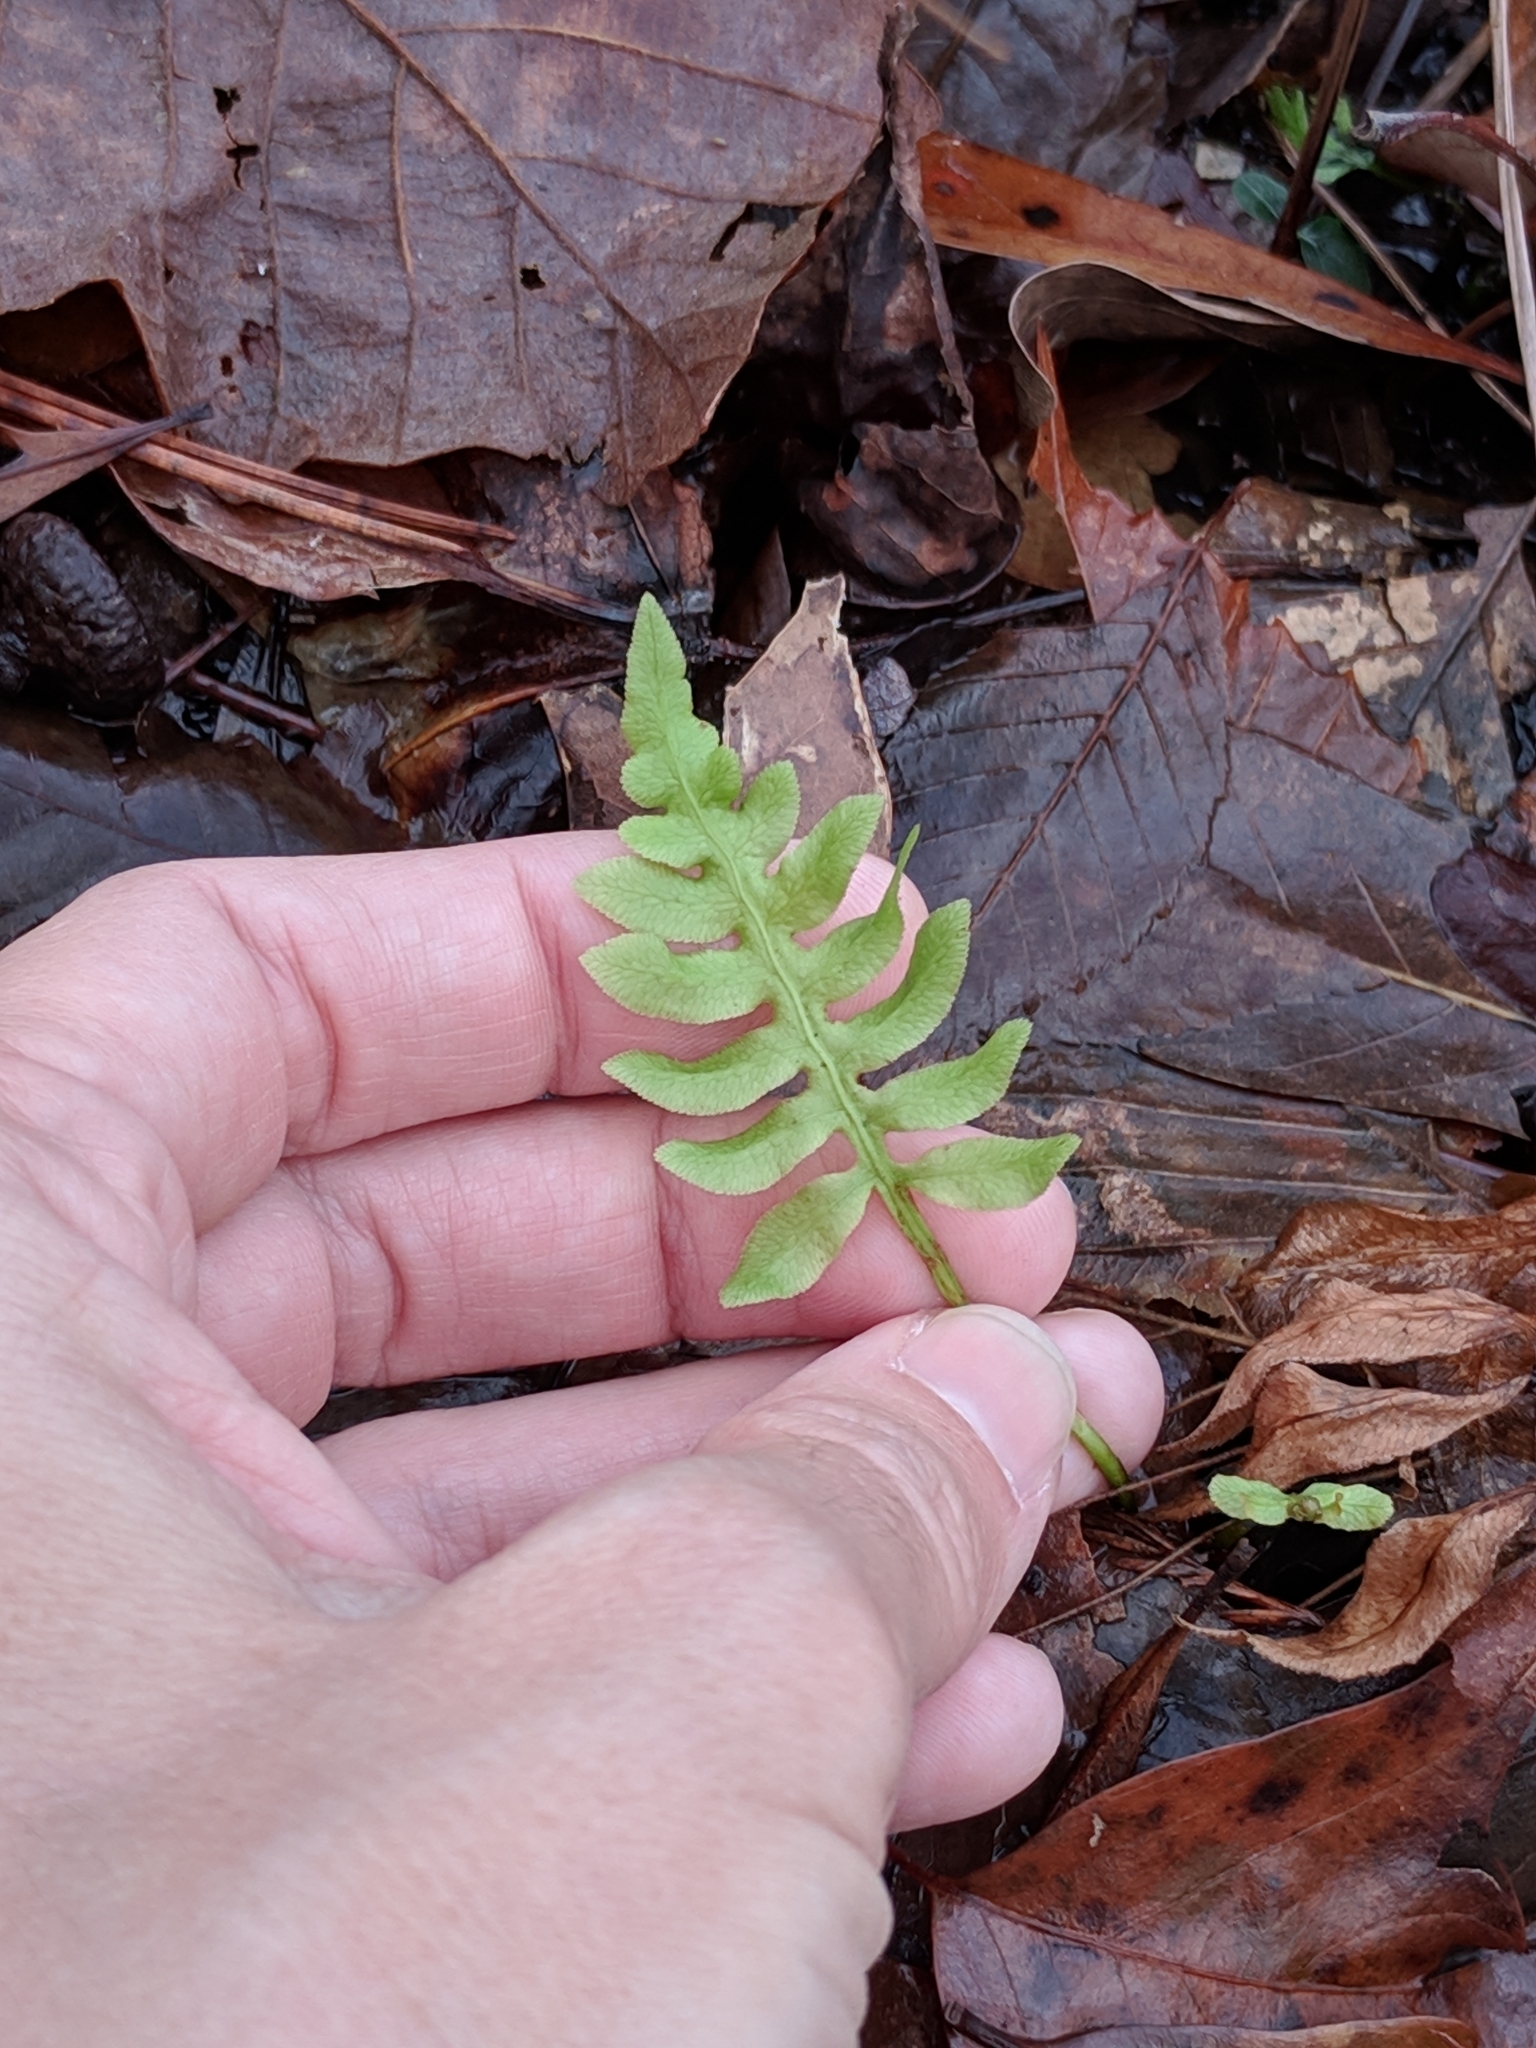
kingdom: Plantae
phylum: Tracheophyta
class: Polypodiopsida
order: Polypodiales
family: Blechnaceae
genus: Lorinseria
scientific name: Lorinseria areolata
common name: Dwarf chain fern
